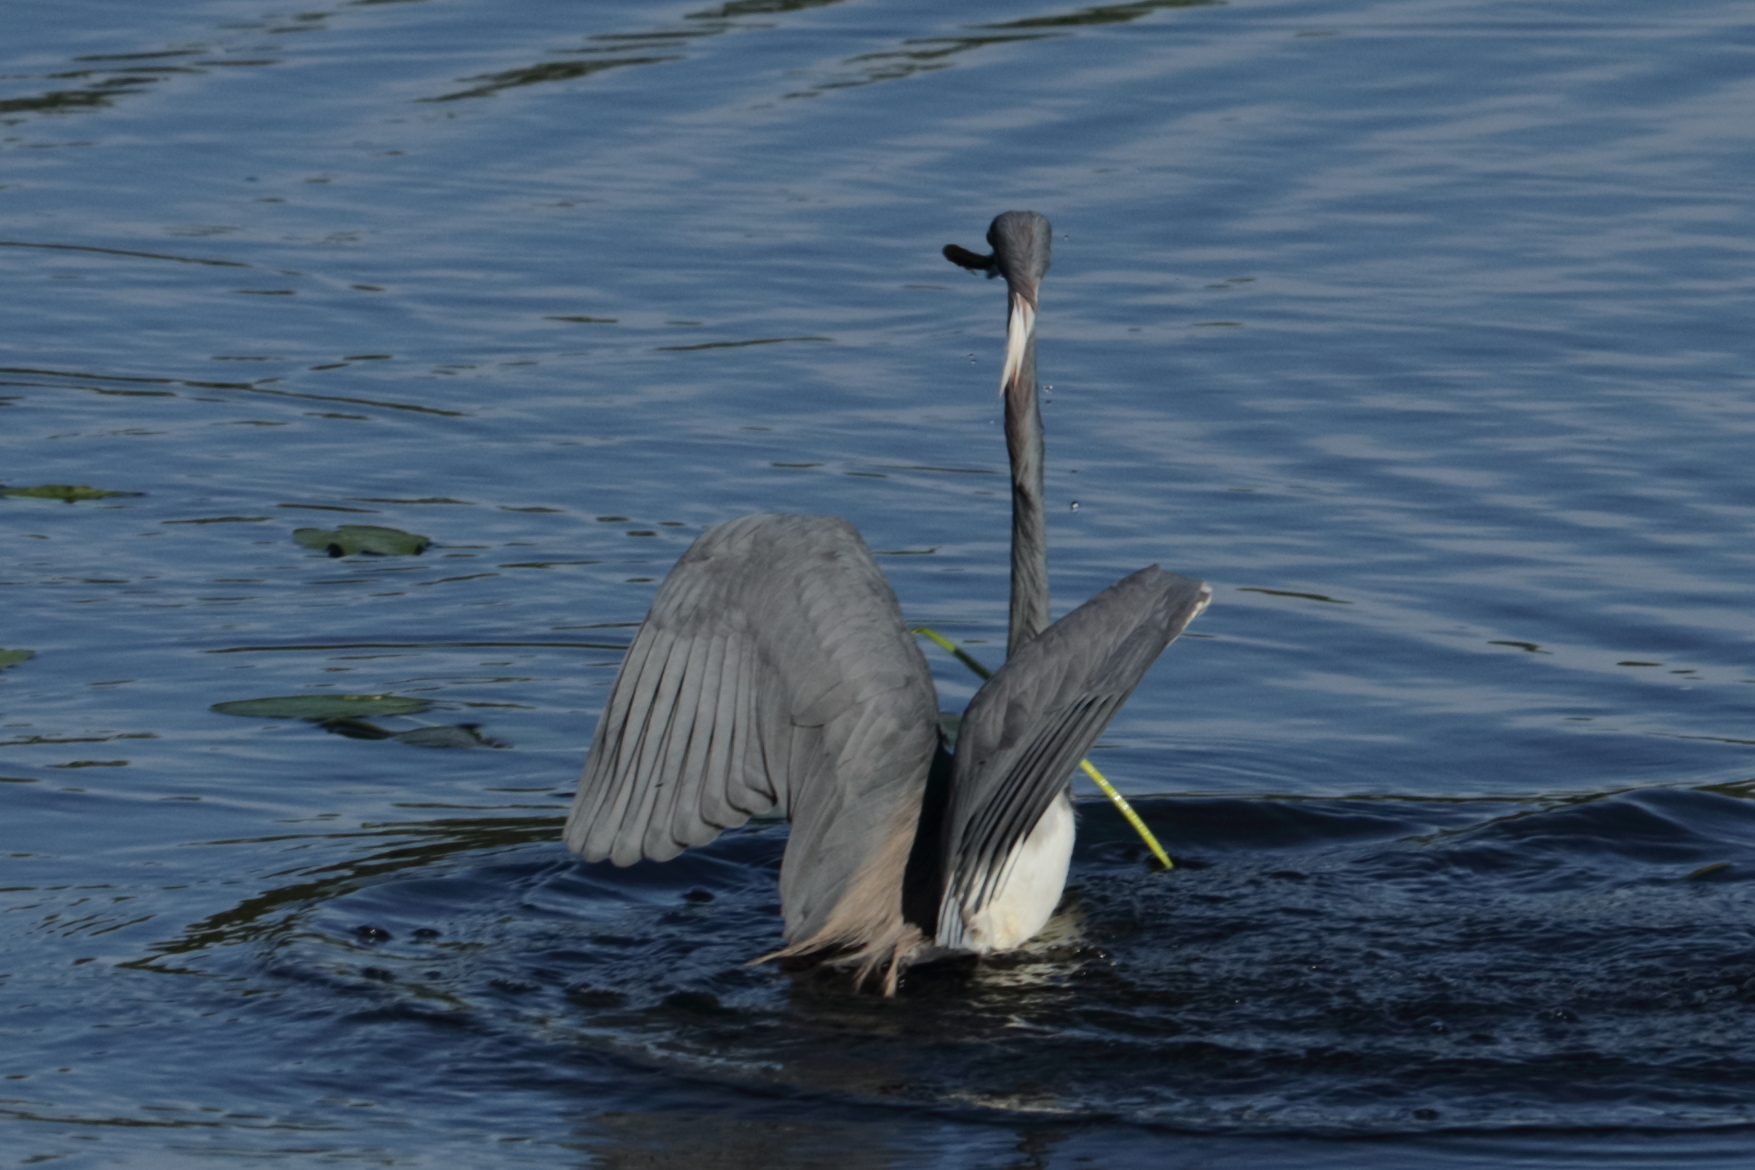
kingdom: Animalia
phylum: Chordata
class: Aves
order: Pelecaniformes
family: Ardeidae
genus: Egretta
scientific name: Egretta tricolor
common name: Tricolored heron
